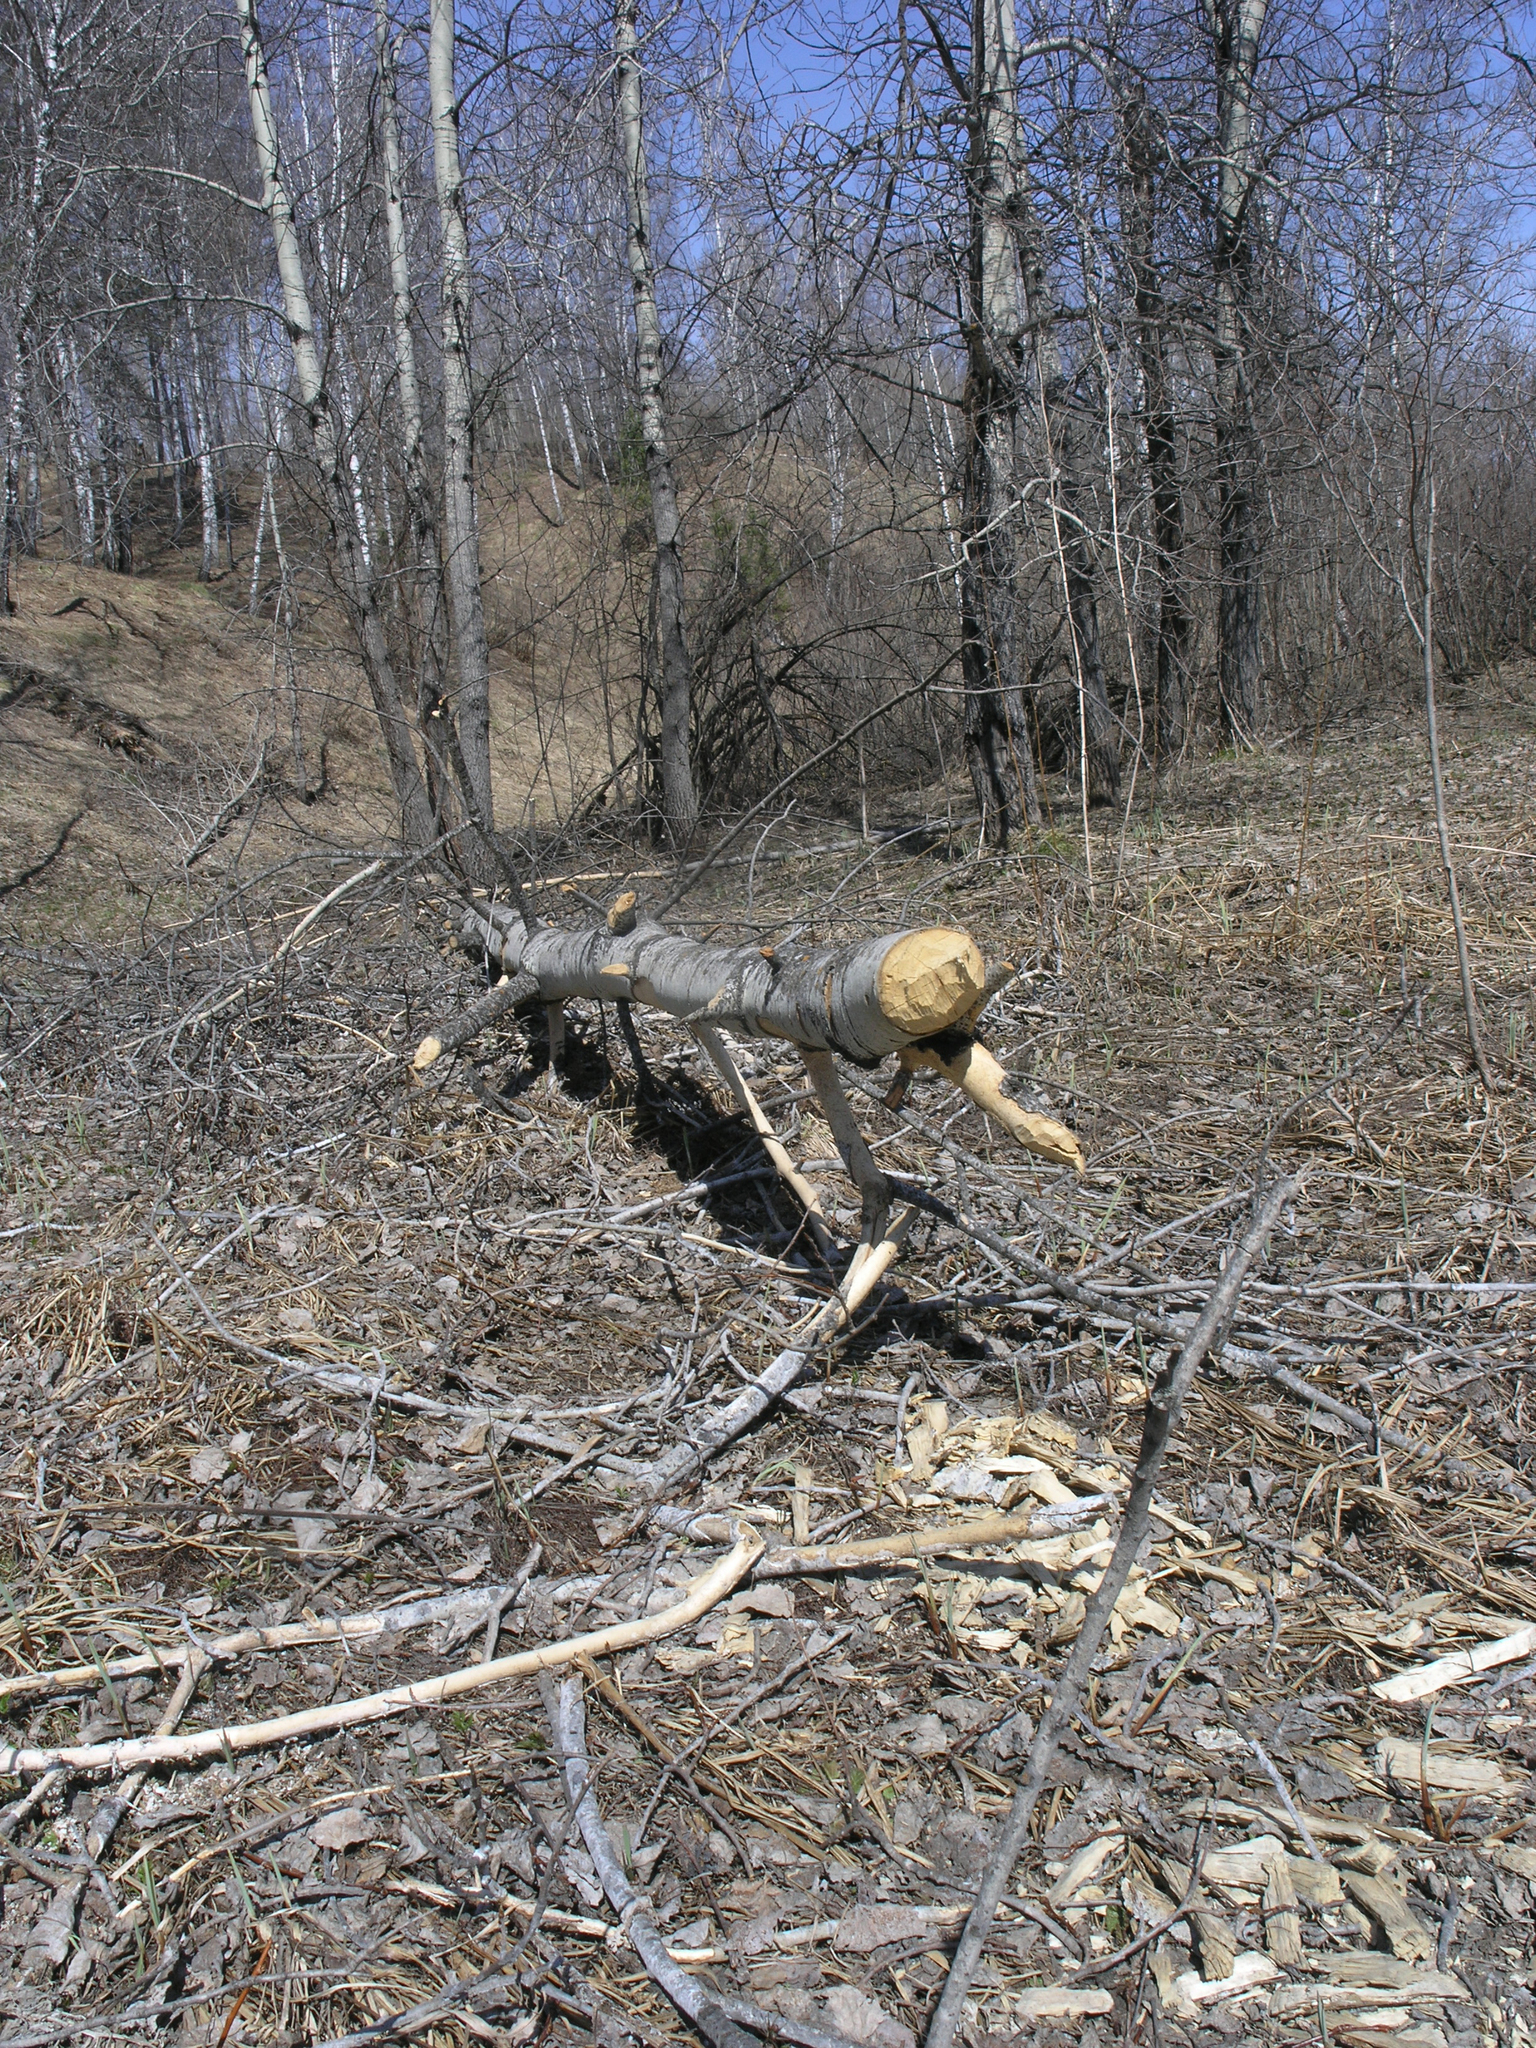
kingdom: Animalia
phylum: Chordata
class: Mammalia
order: Rodentia
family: Castoridae
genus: Castor
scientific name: Castor fiber
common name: Eurasian beaver
